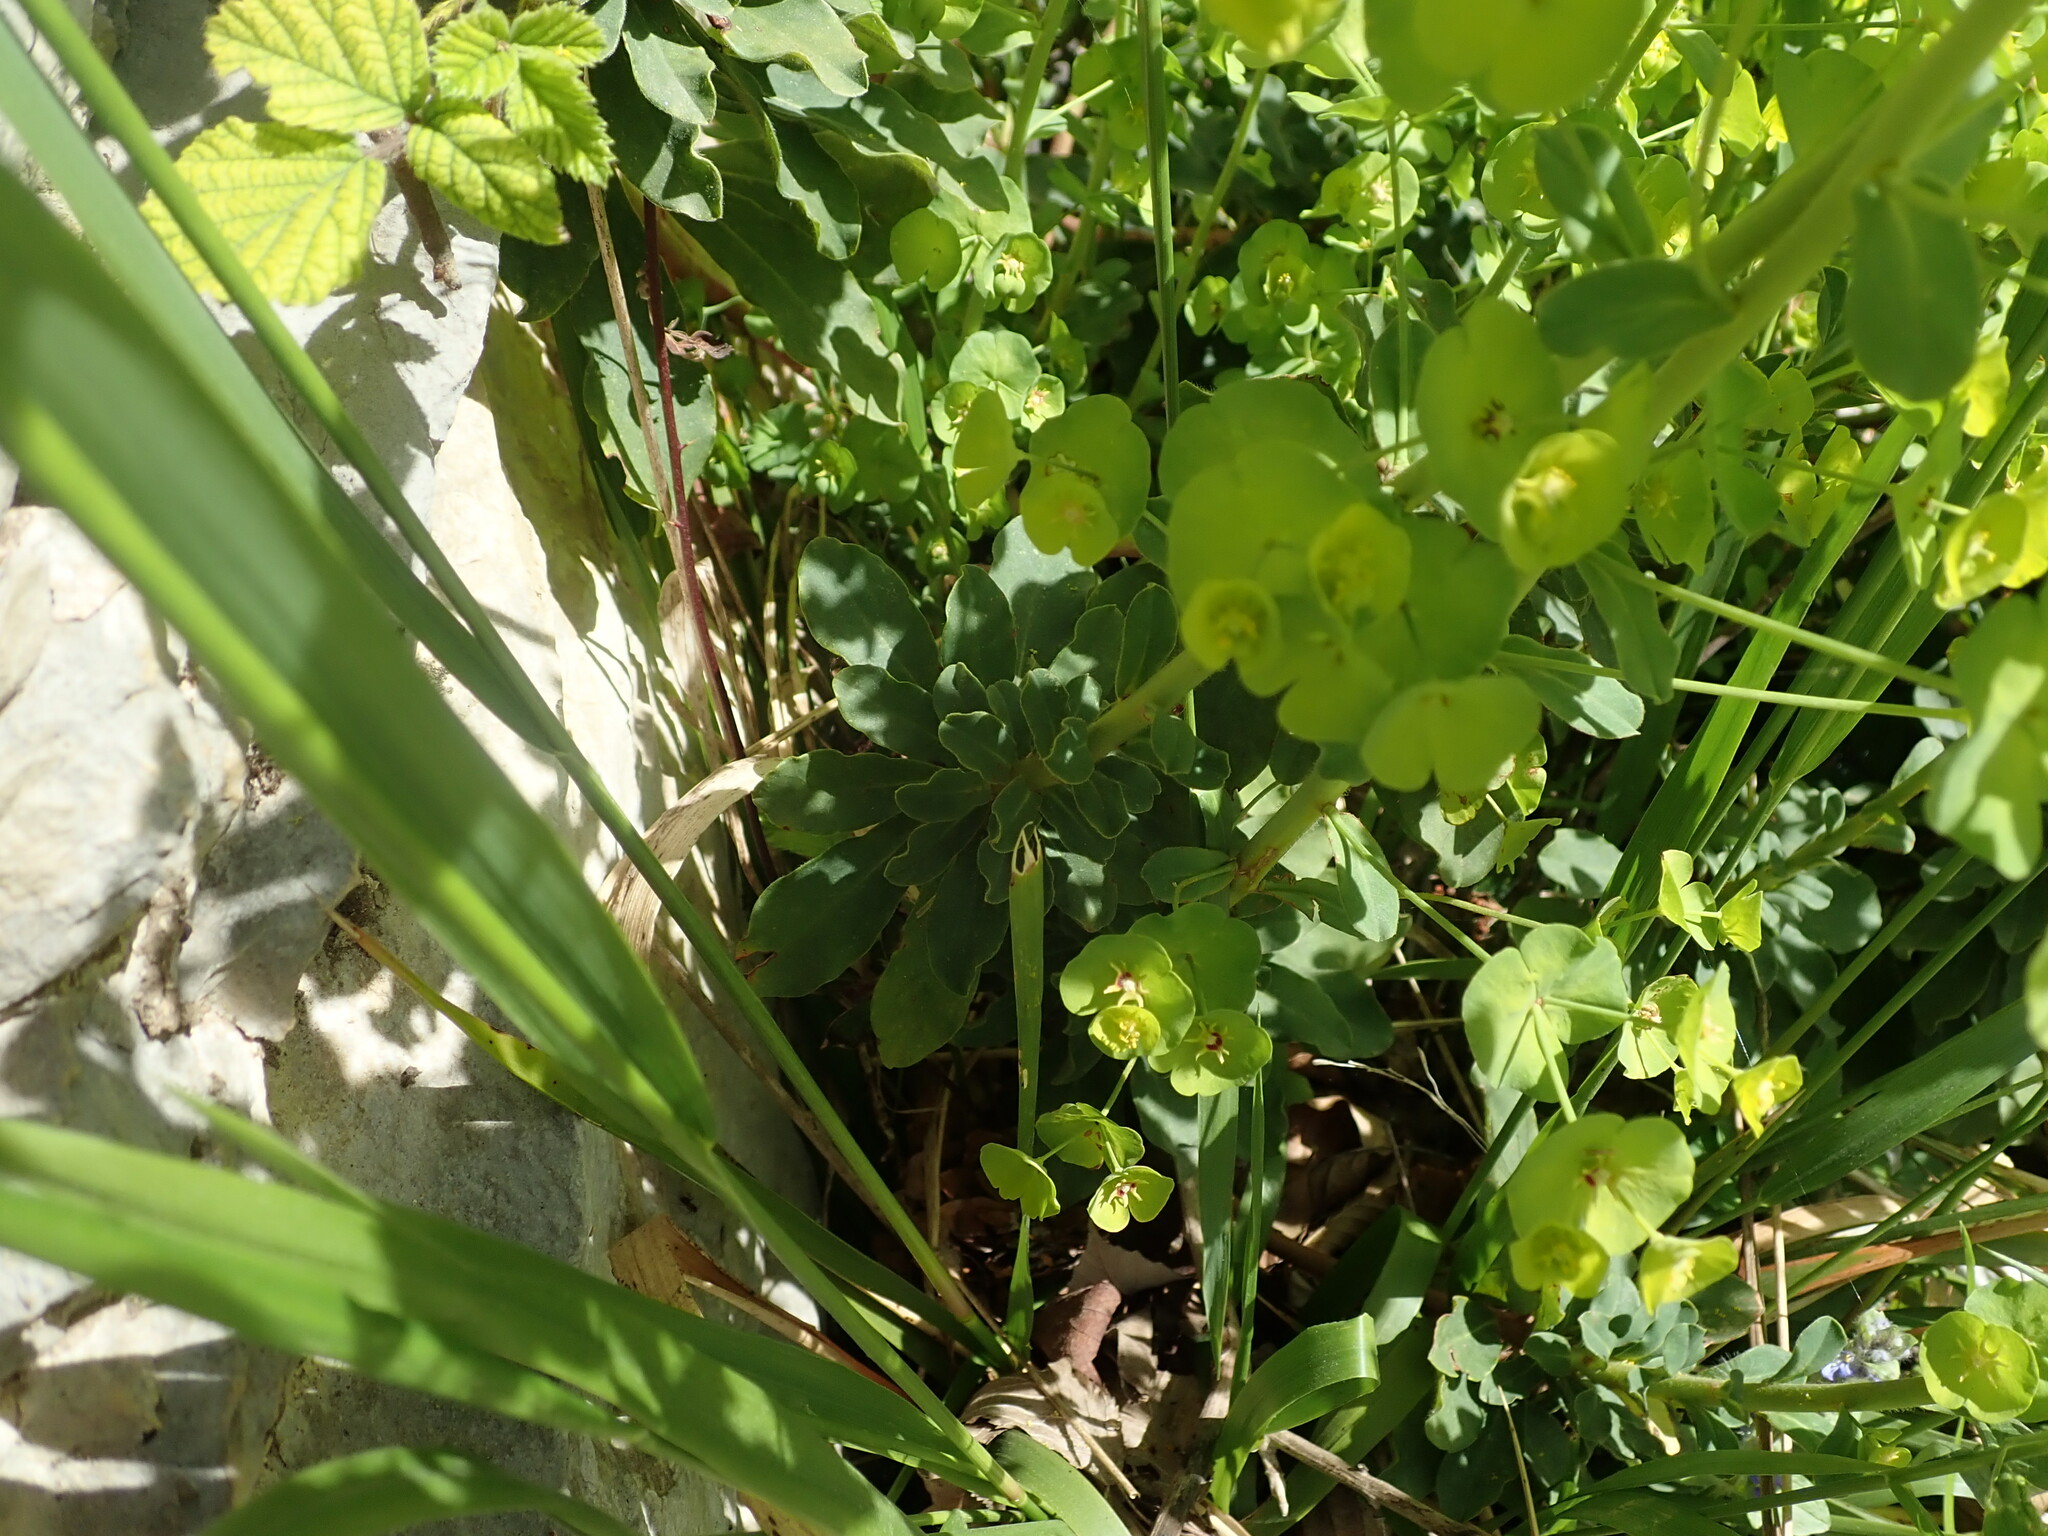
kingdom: Plantae
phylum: Tracheophyta
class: Magnoliopsida
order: Malpighiales
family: Euphorbiaceae
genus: Euphorbia
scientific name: Euphorbia amygdaloides
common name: Wood spurge
